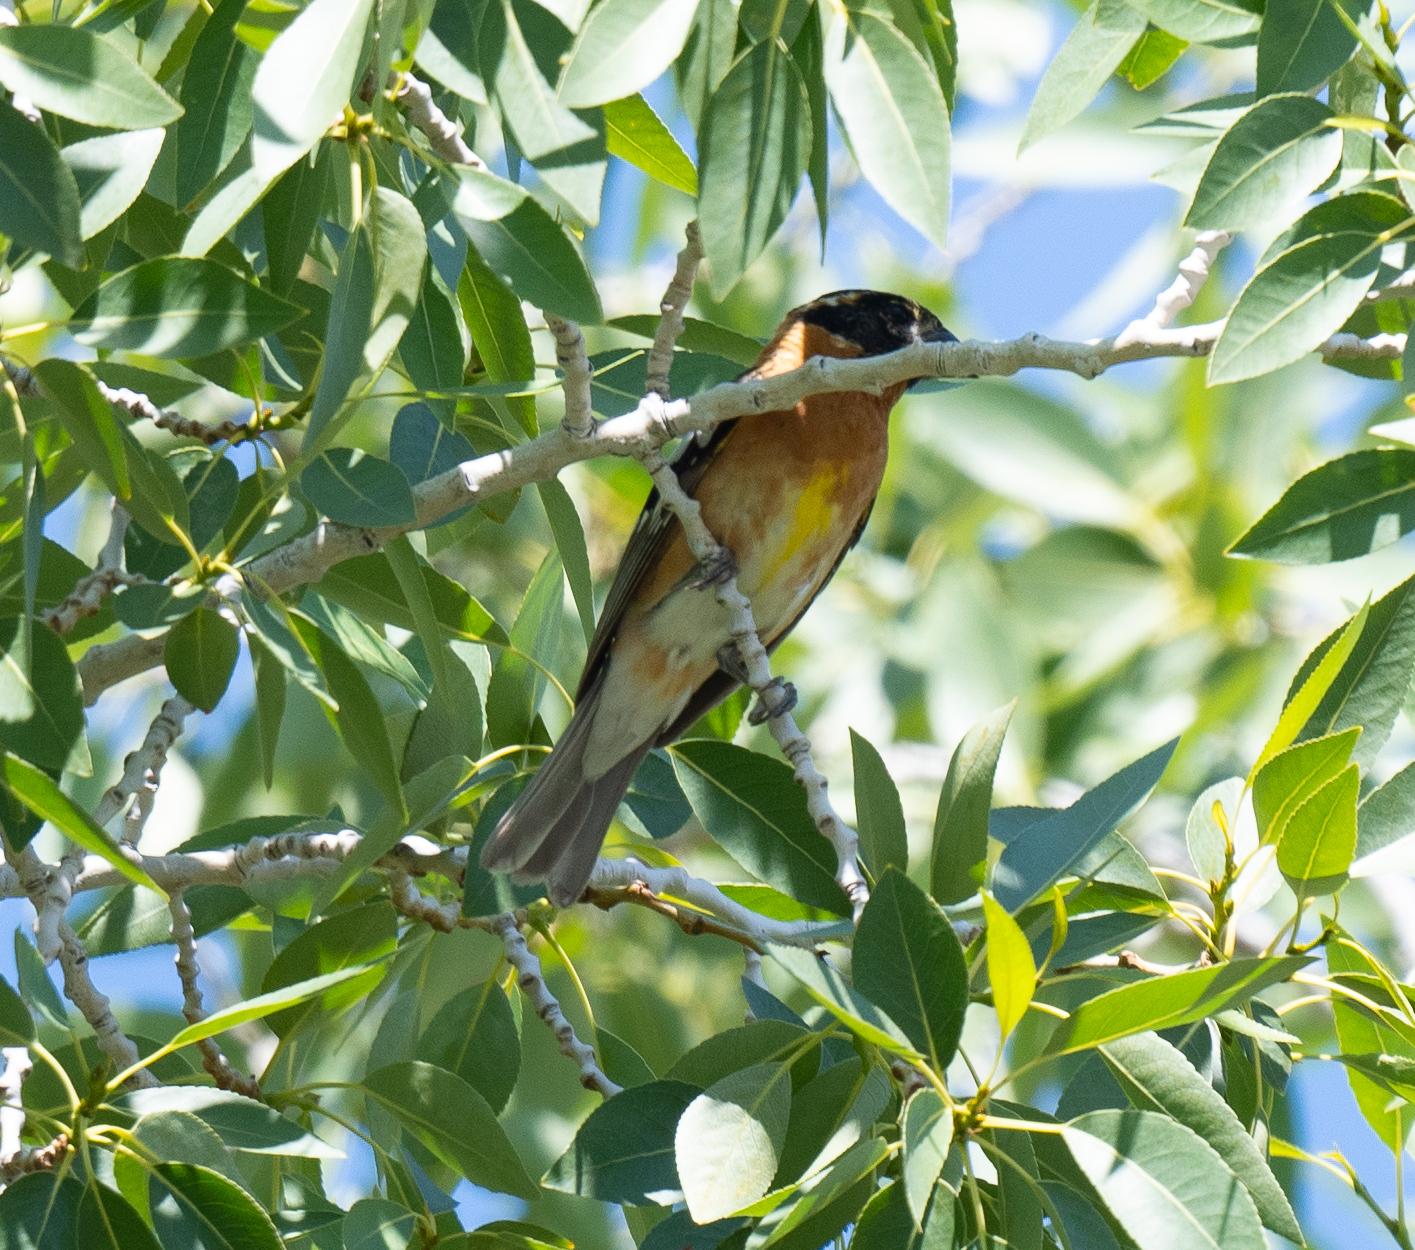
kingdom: Animalia
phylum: Chordata
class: Aves
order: Passeriformes
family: Cardinalidae
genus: Pheucticus
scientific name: Pheucticus melanocephalus
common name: Black-headed grosbeak
